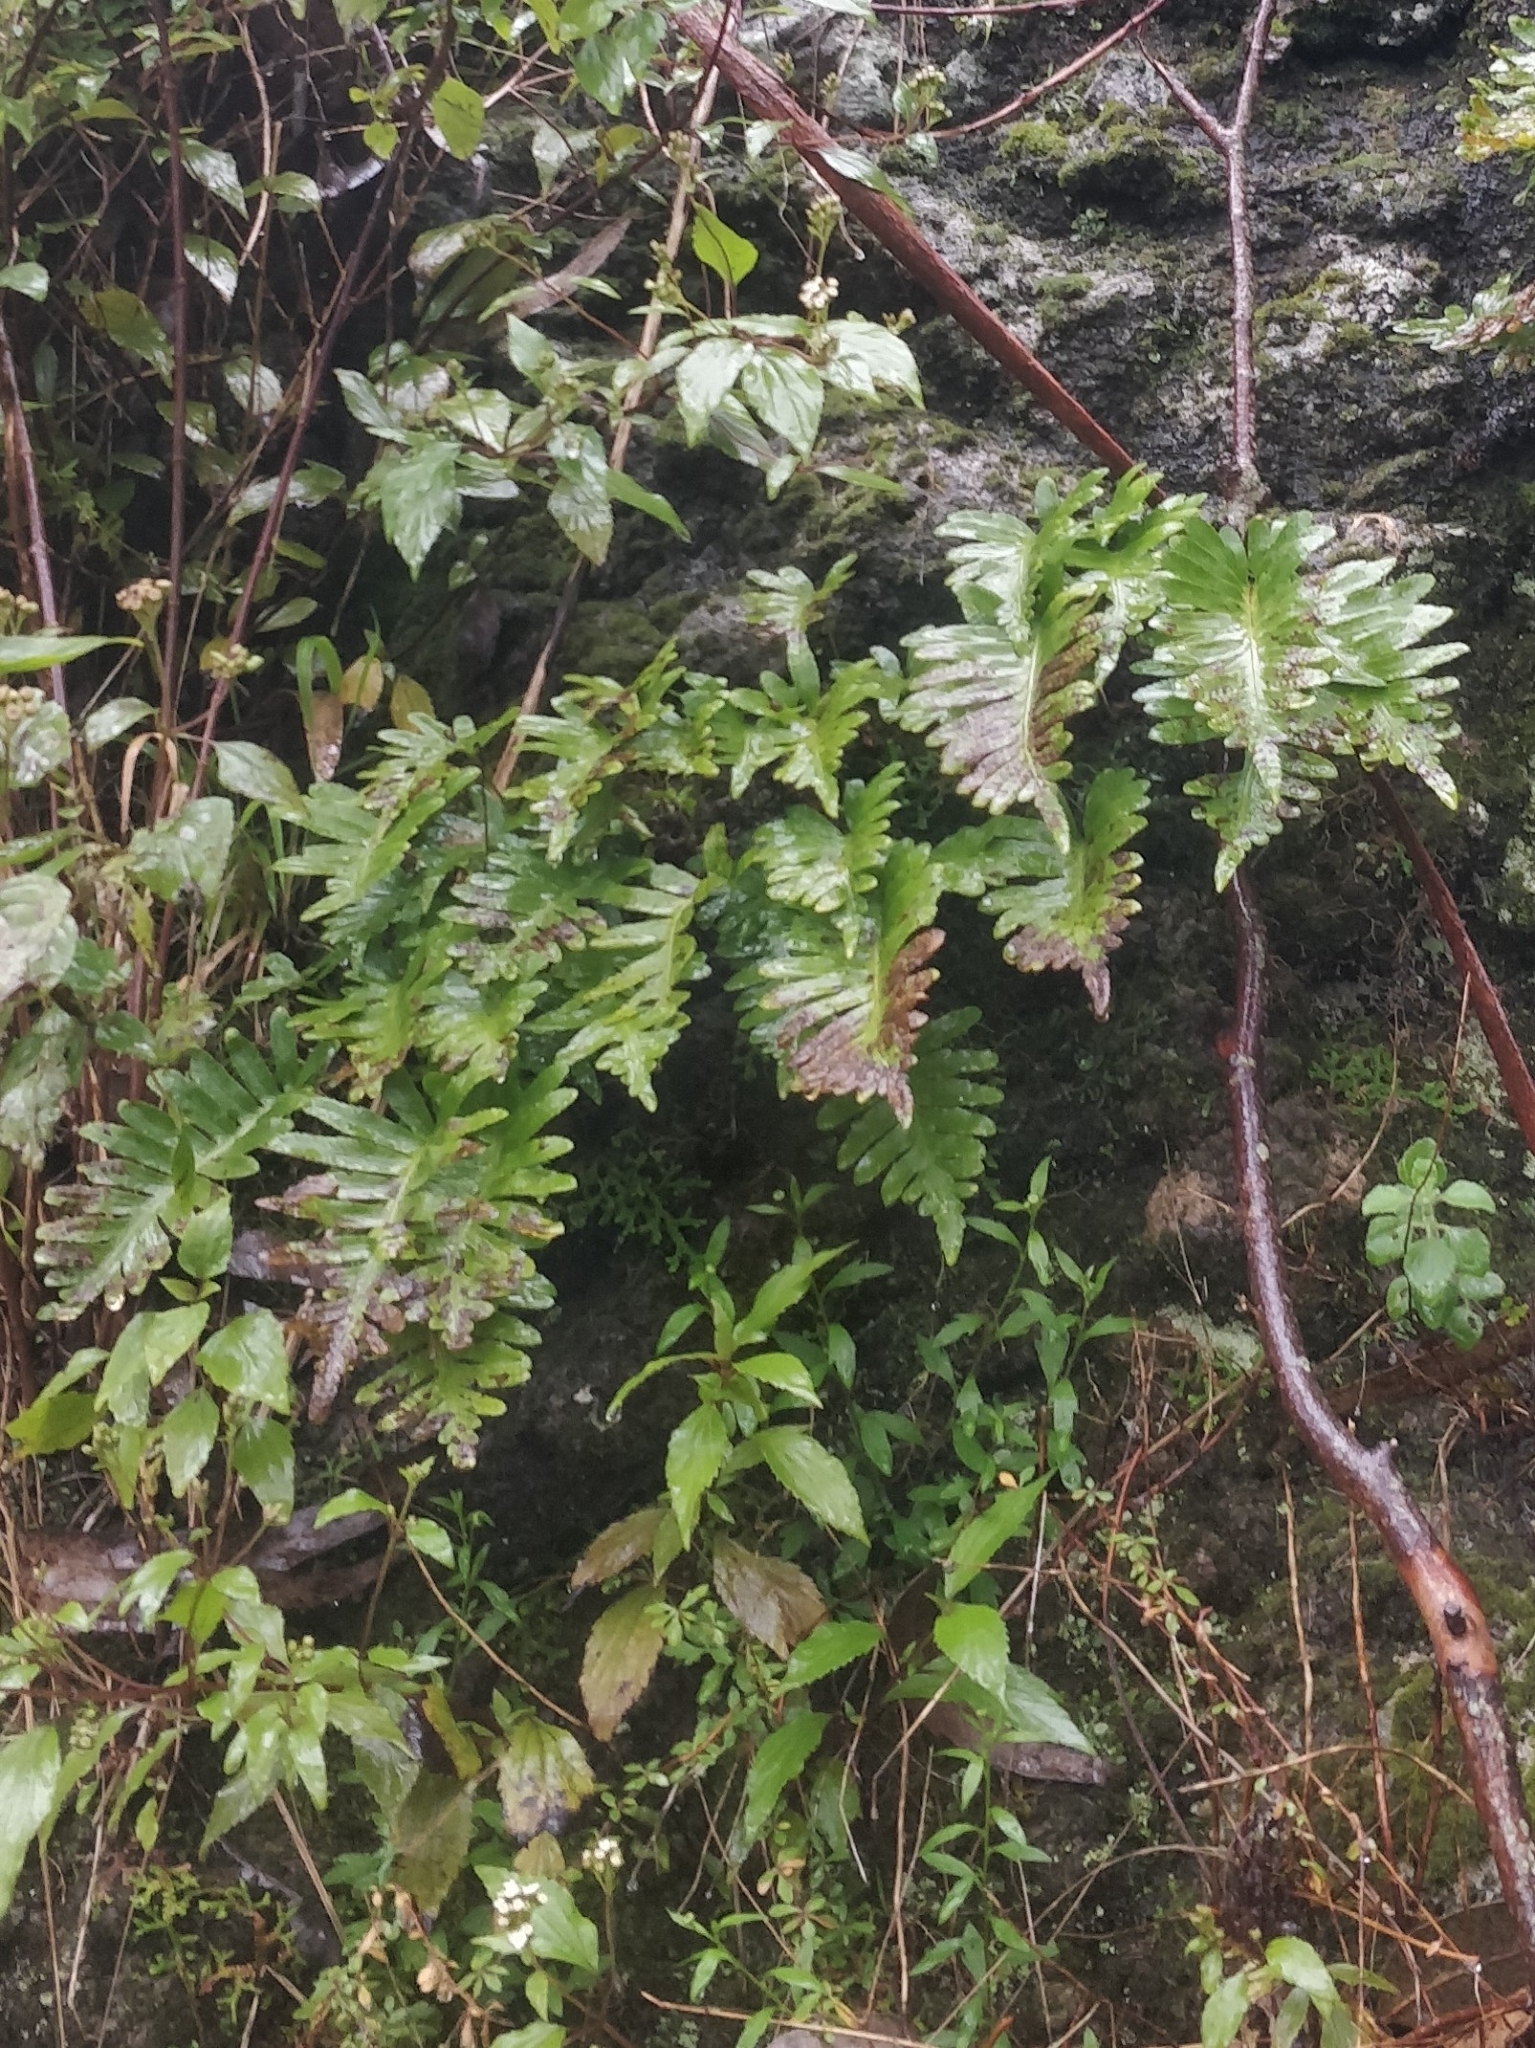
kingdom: Plantae
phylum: Tracheophyta
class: Polypodiopsida
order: Polypodiales
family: Polypodiaceae
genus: Polypodium
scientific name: Polypodium macaronesicum
